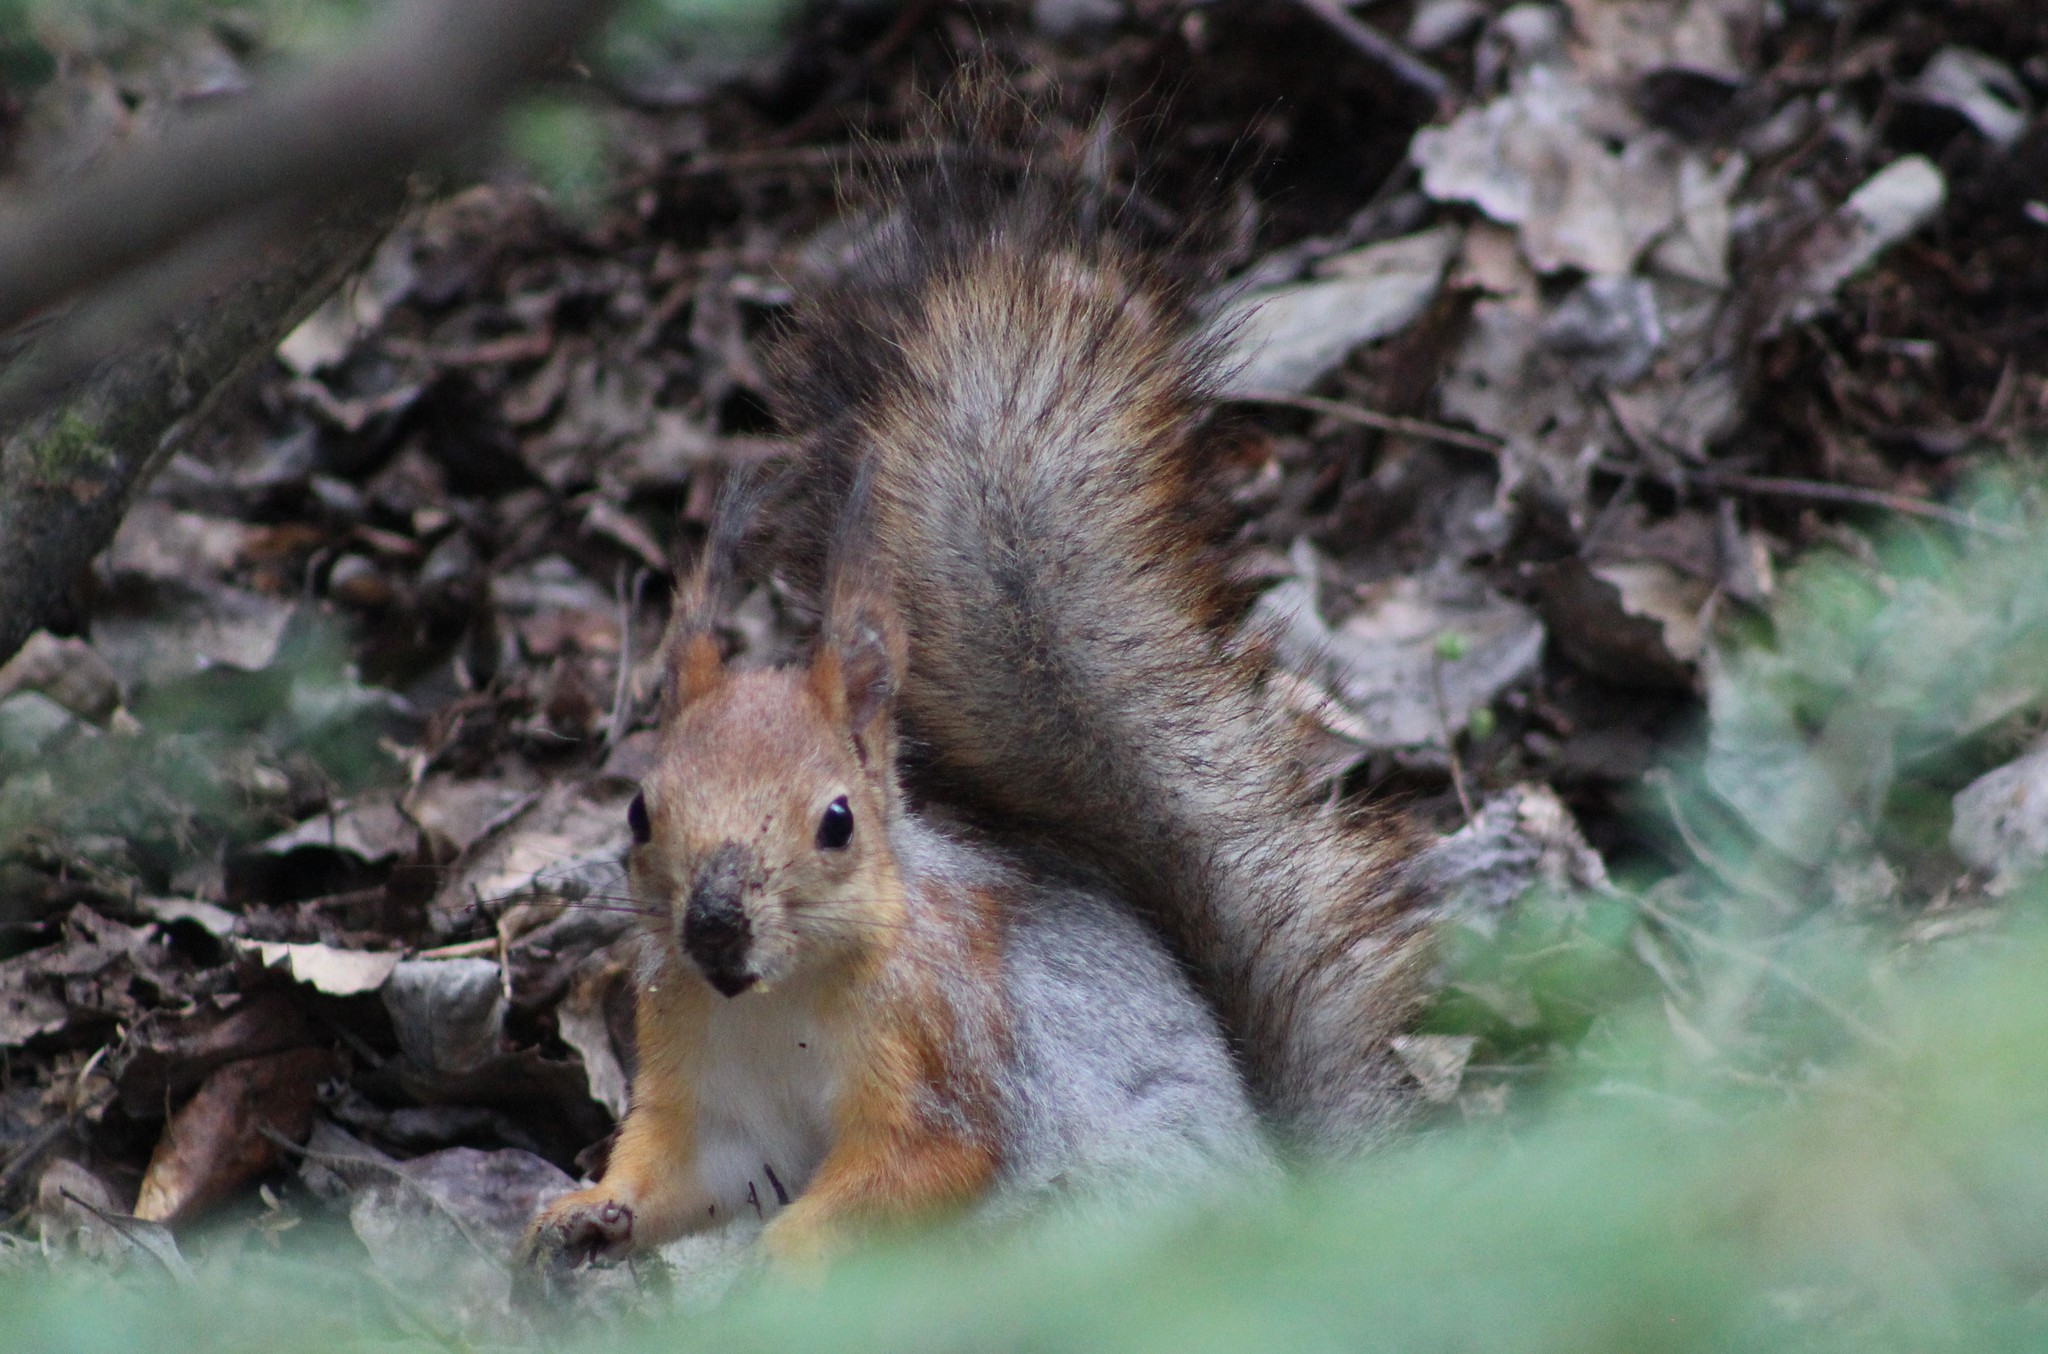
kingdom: Animalia
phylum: Chordata
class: Mammalia
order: Rodentia
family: Sciuridae
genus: Sciurus
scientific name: Sciurus vulgaris
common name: Eurasian red squirrel
